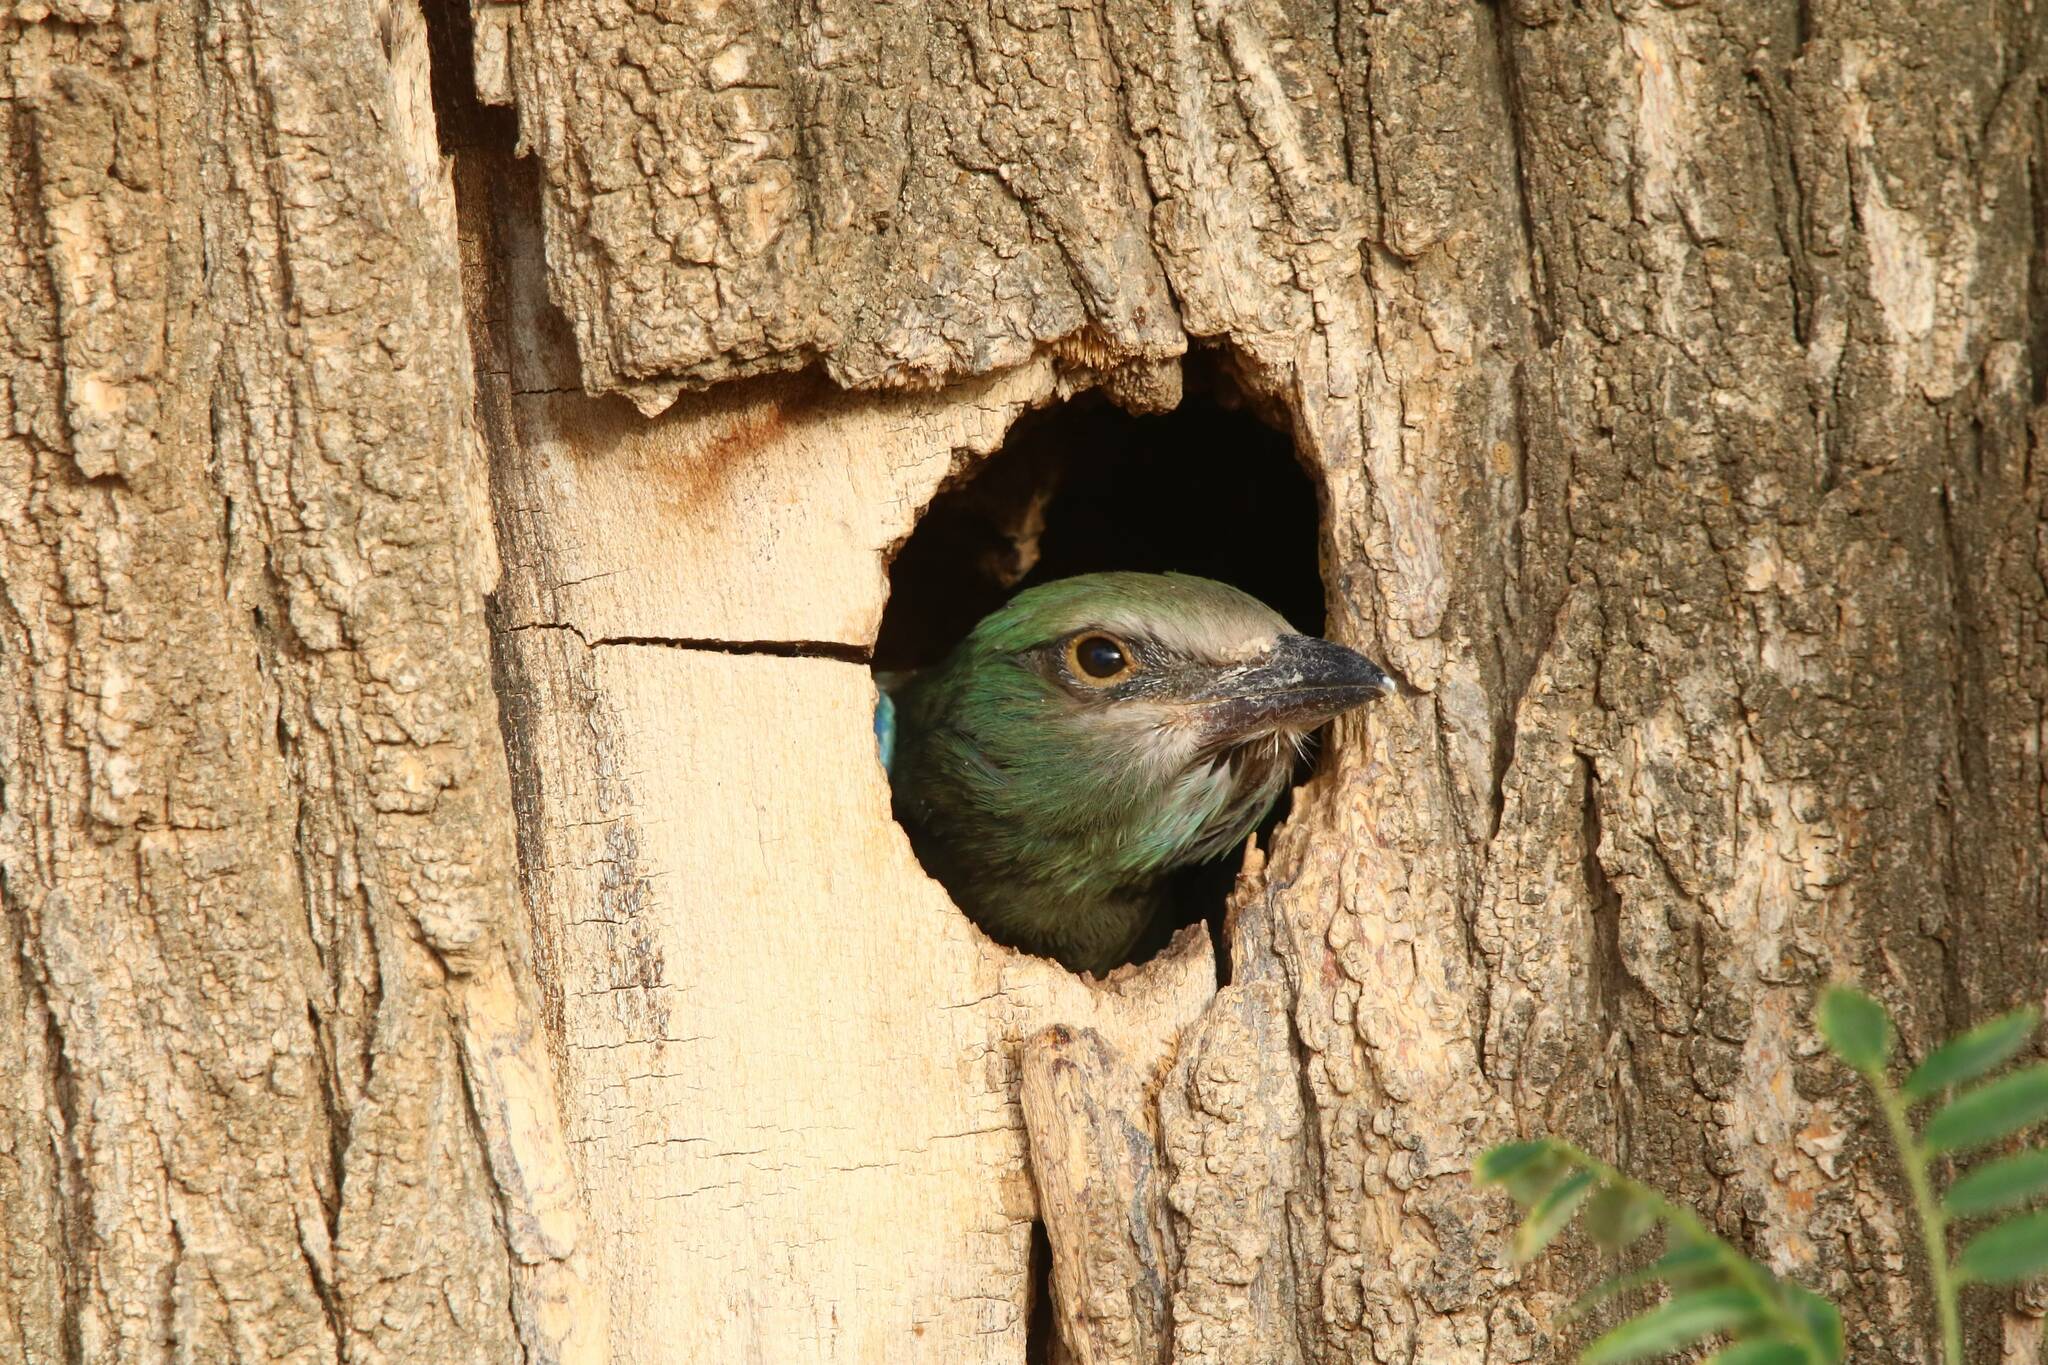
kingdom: Animalia
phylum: Chordata
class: Aves
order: Coraciiformes
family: Coraciidae
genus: Coracias
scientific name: Coracias garrulus
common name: European roller
